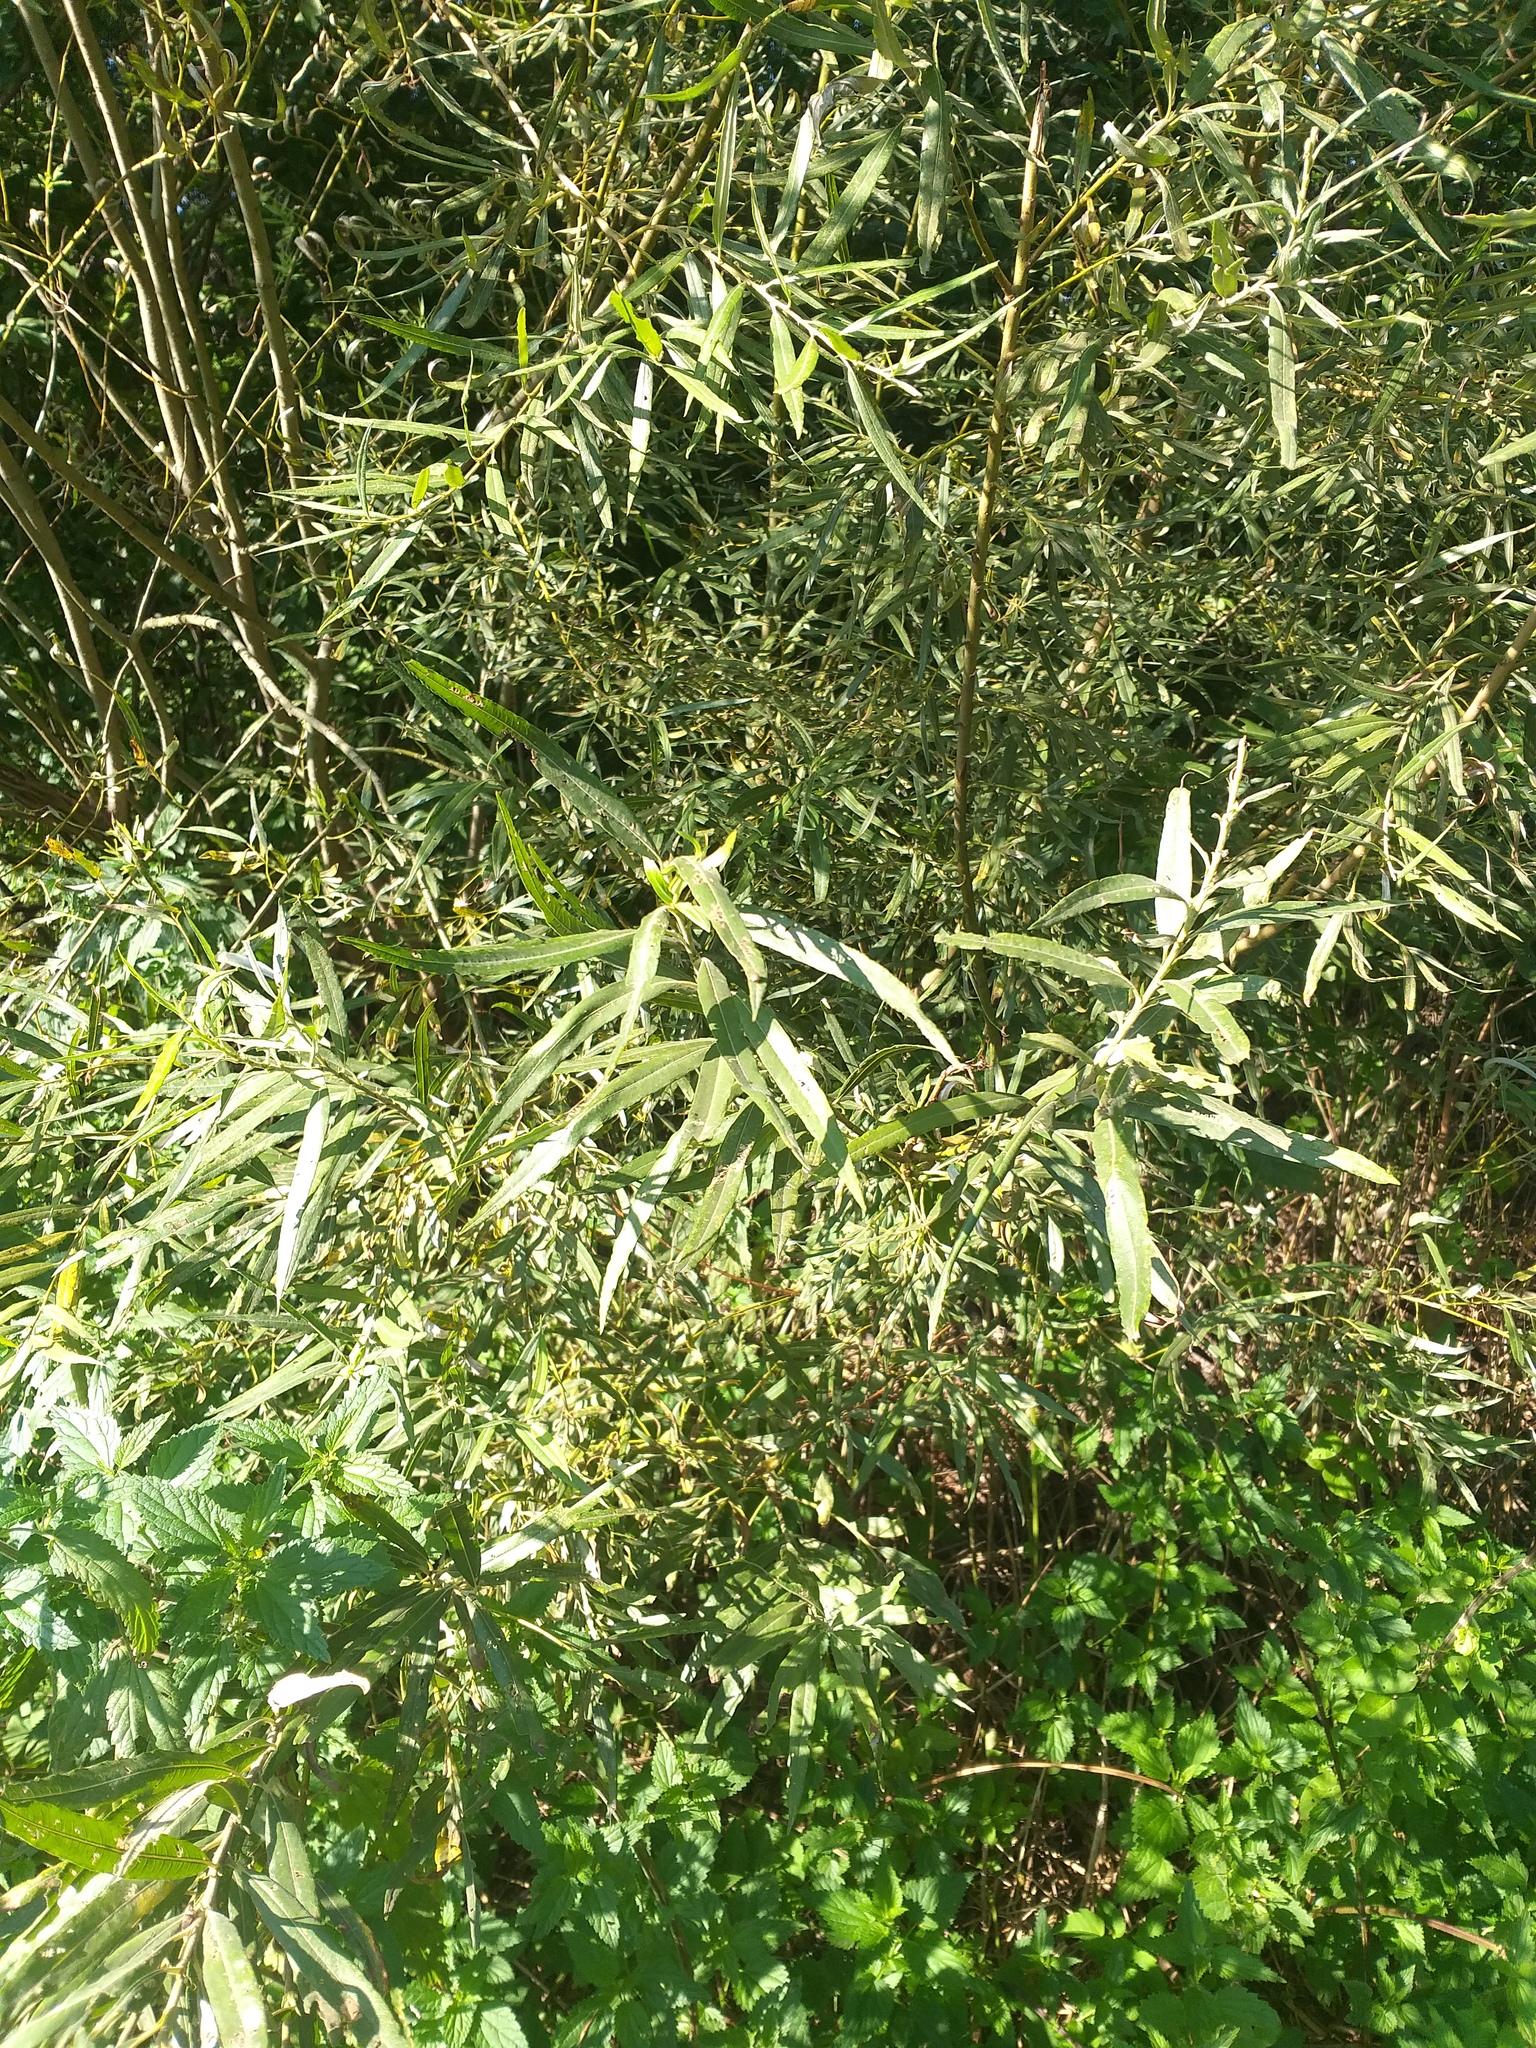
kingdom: Plantae
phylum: Tracheophyta
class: Magnoliopsida
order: Malpighiales
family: Salicaceae
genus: Salix
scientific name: Salix viminalis
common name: Osier
